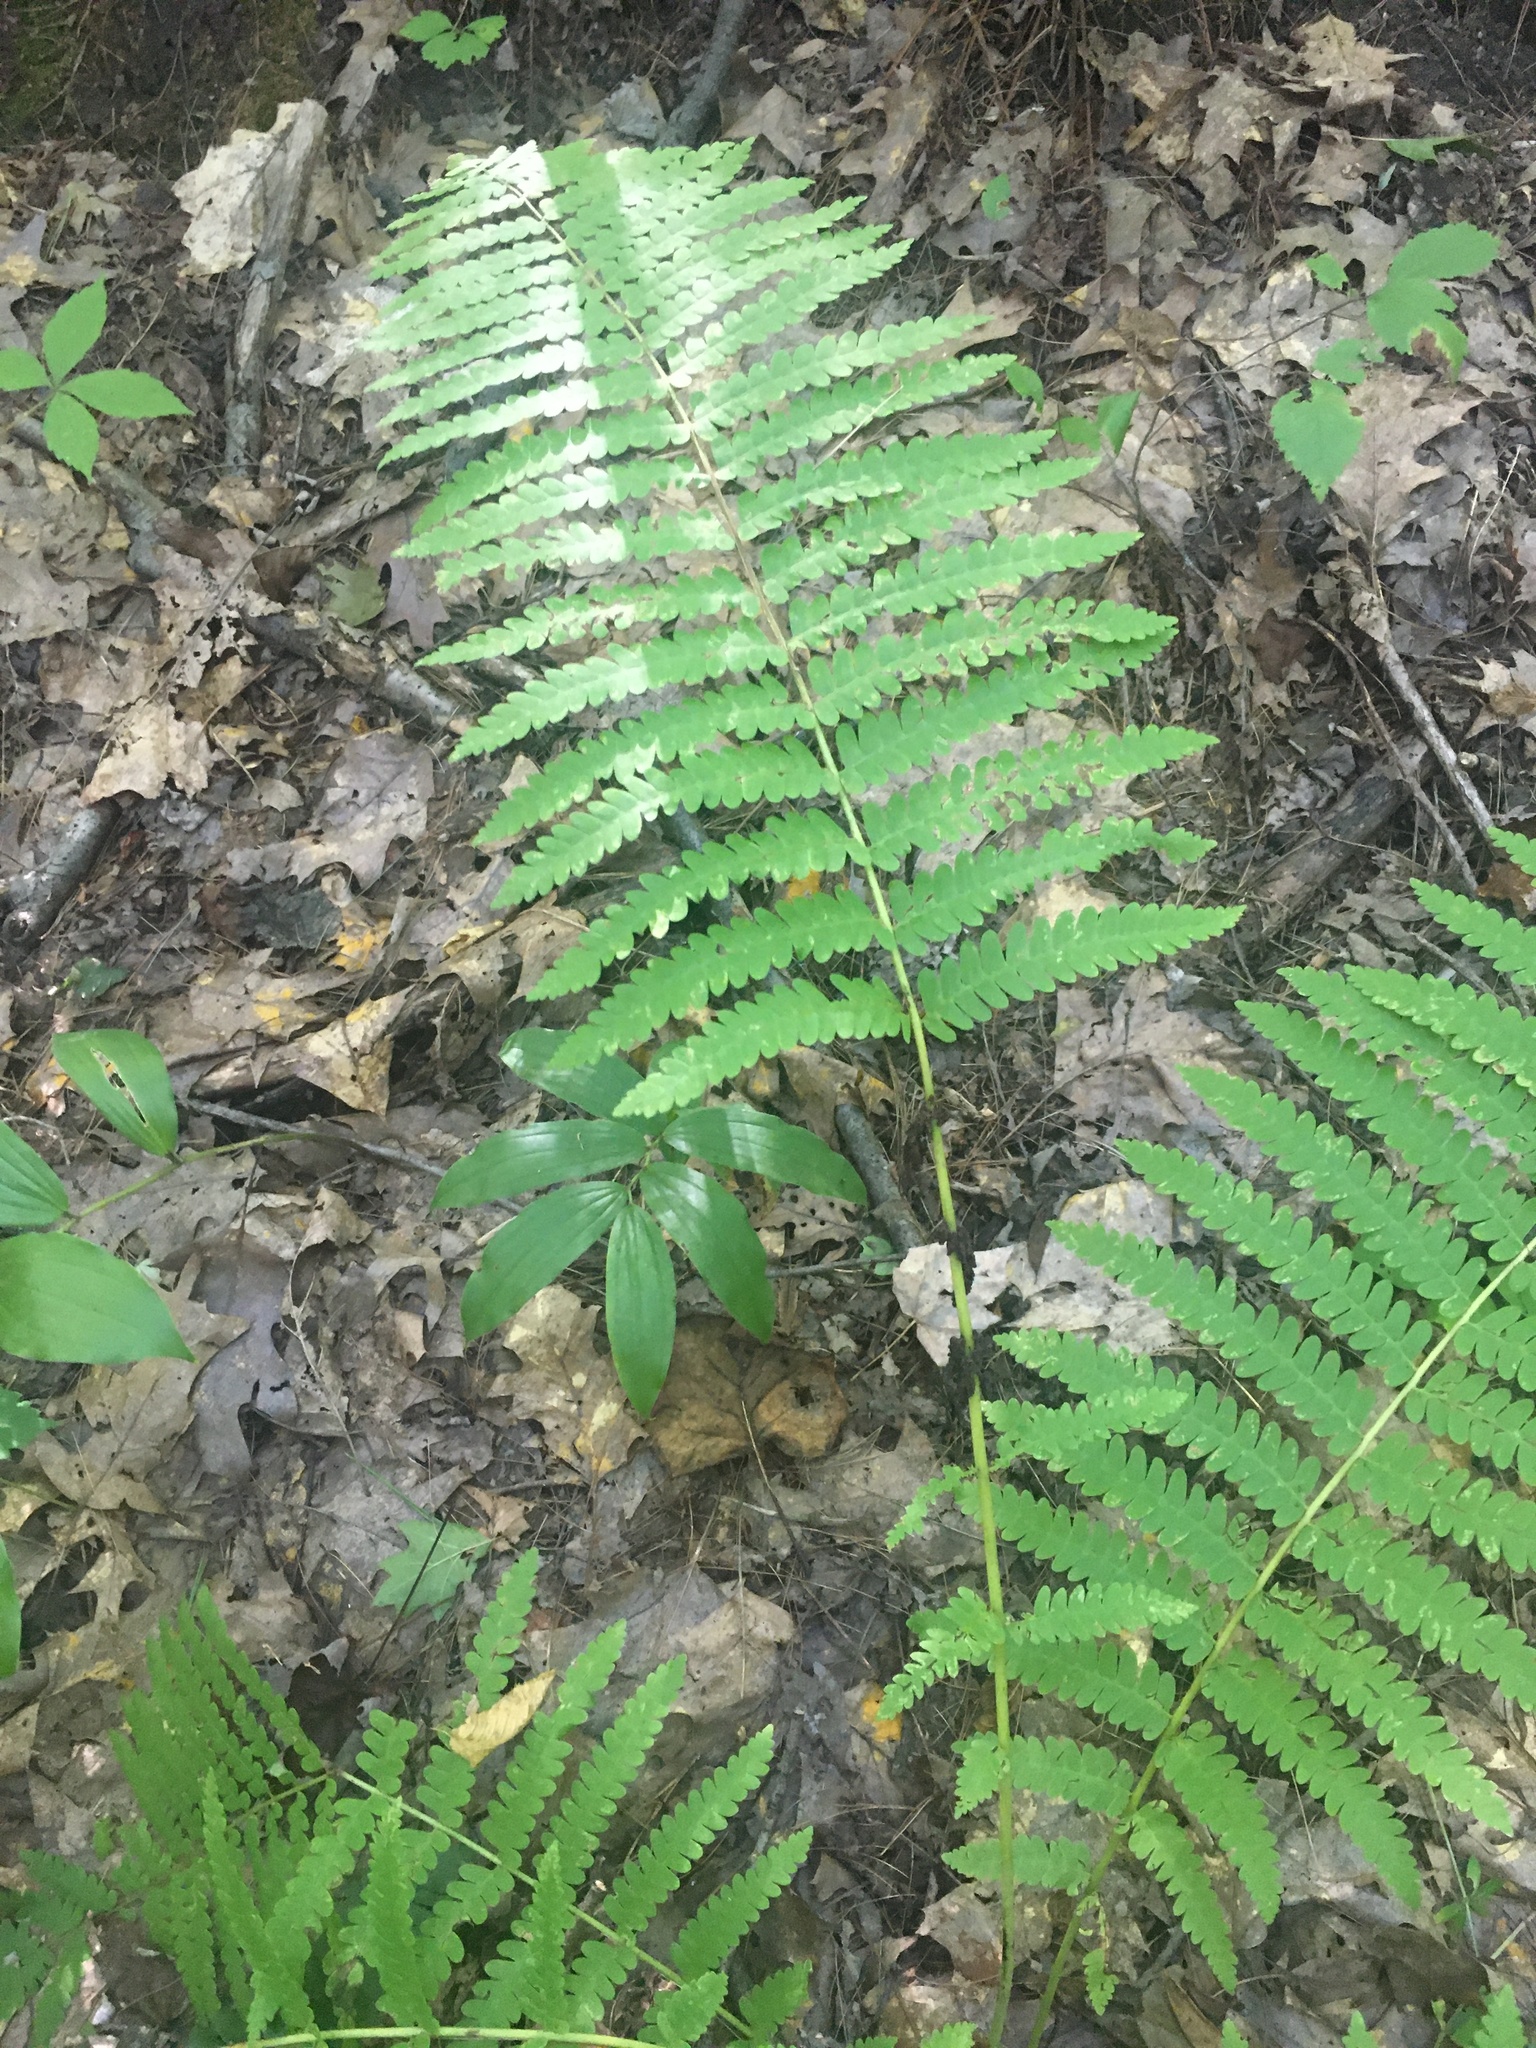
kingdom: Plantae
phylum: Tracheophyta
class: Polypodiopsida
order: Osmundales
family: Osmundaceae
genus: Claytosmunda
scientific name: Claytosmunda claytoniana
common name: Clayton's fern
